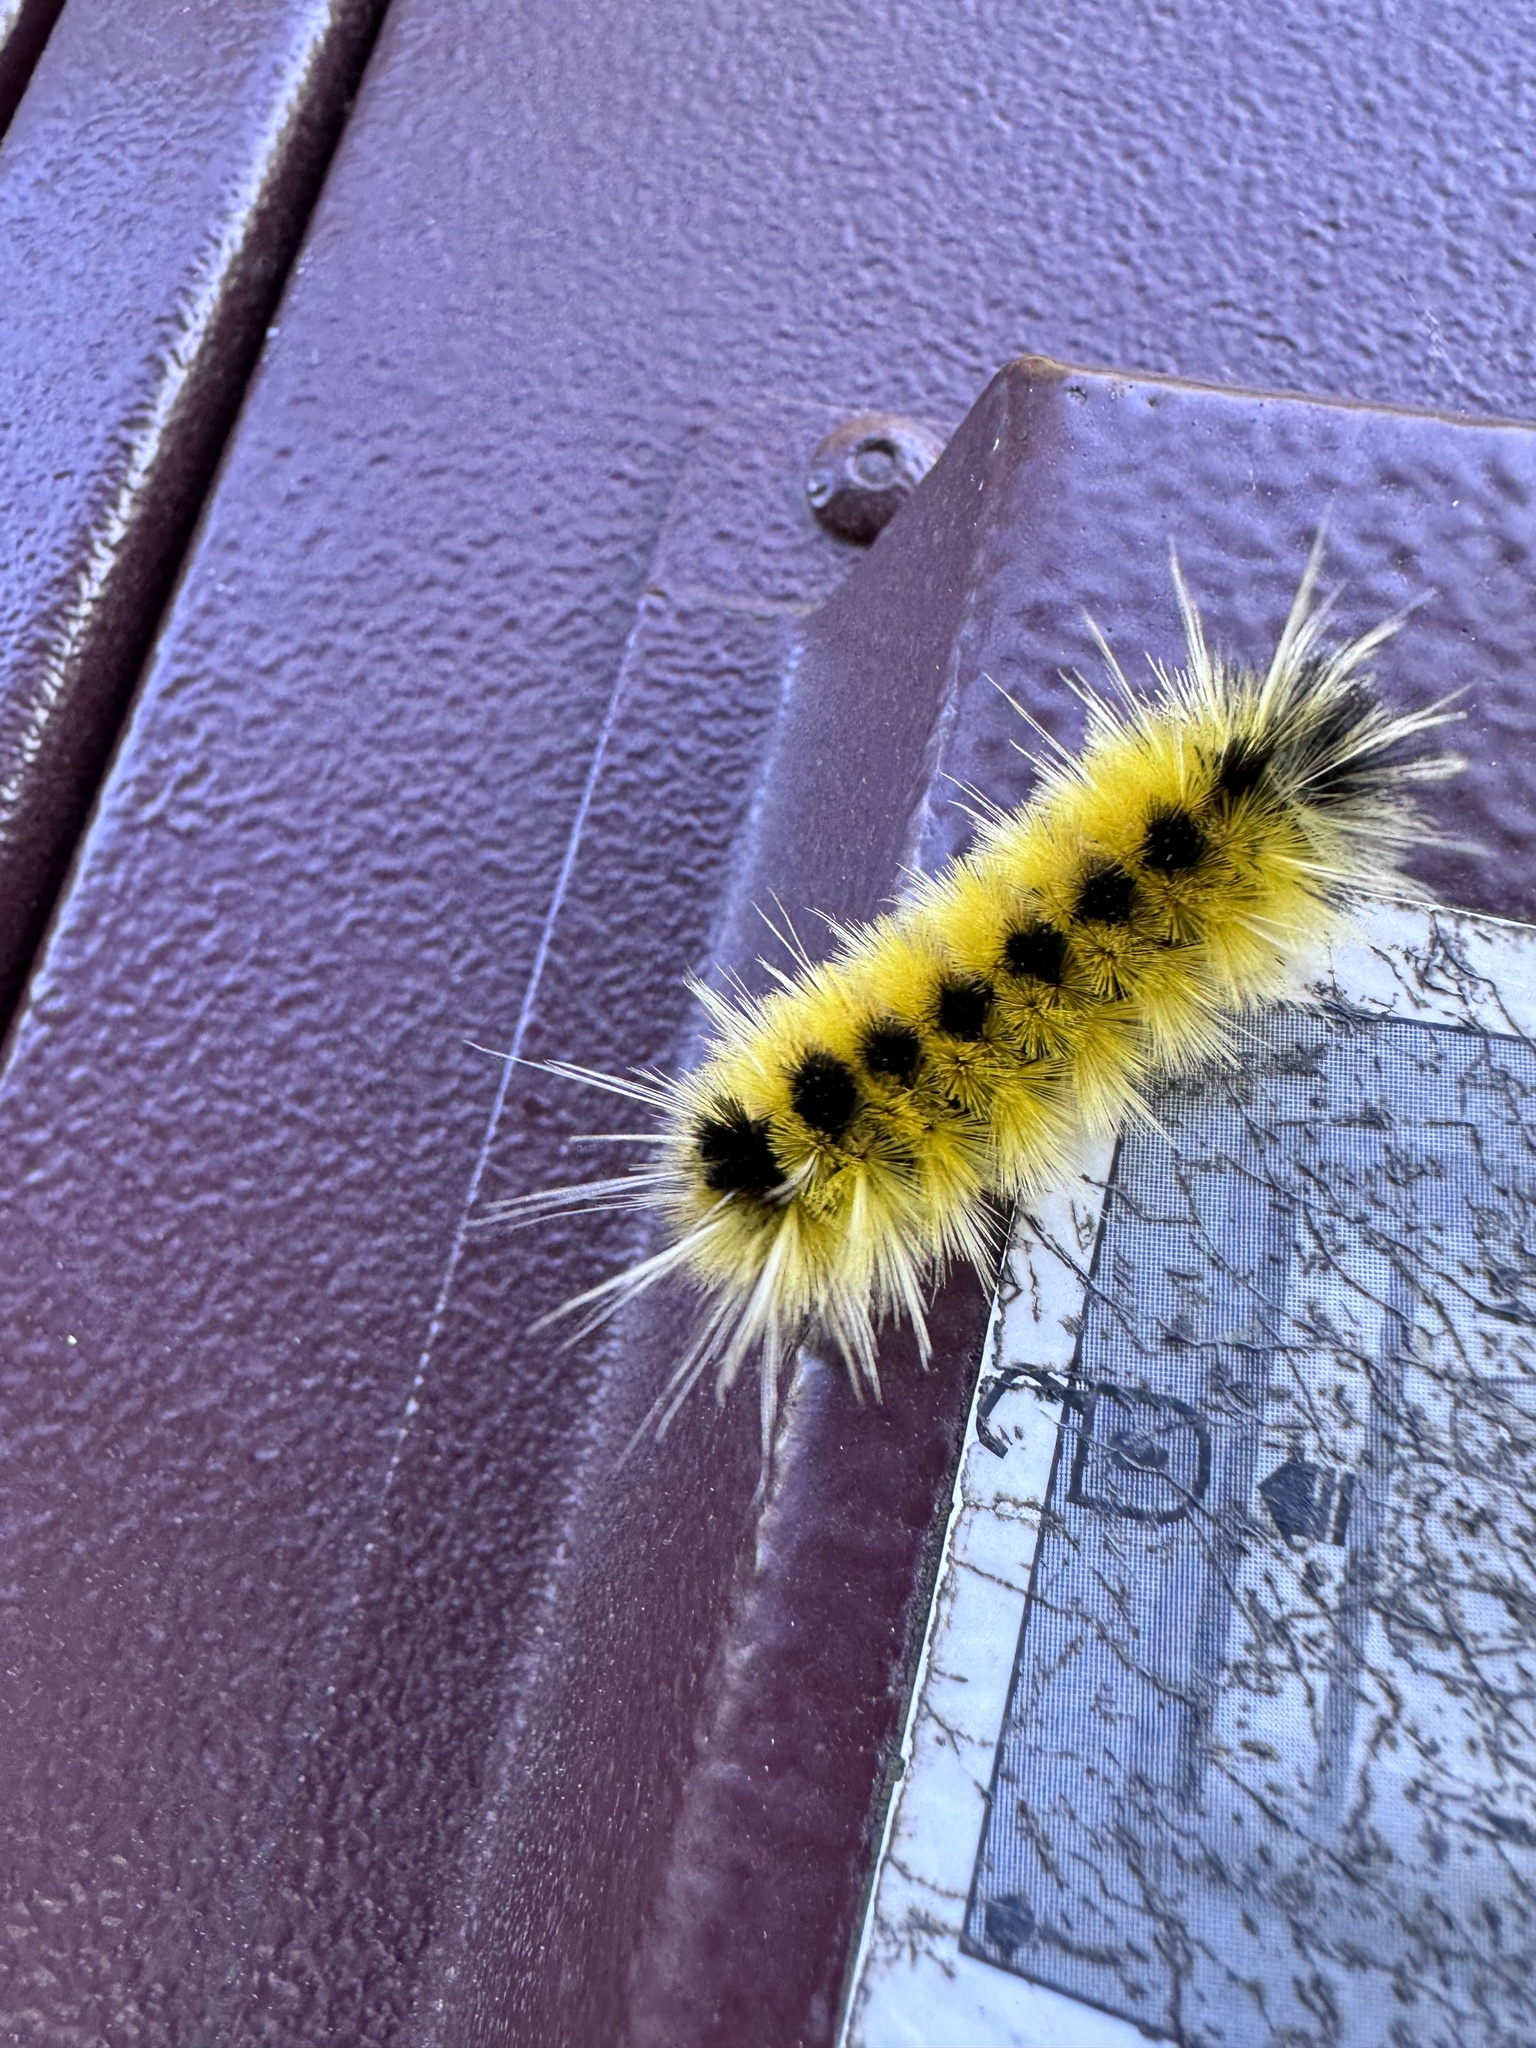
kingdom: Animalia
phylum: Arthropoda
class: Insecta
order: Lepidoptera
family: Erebidae
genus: Lophocampa
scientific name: Lophocampa maculata
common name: Spotted tussock moth
